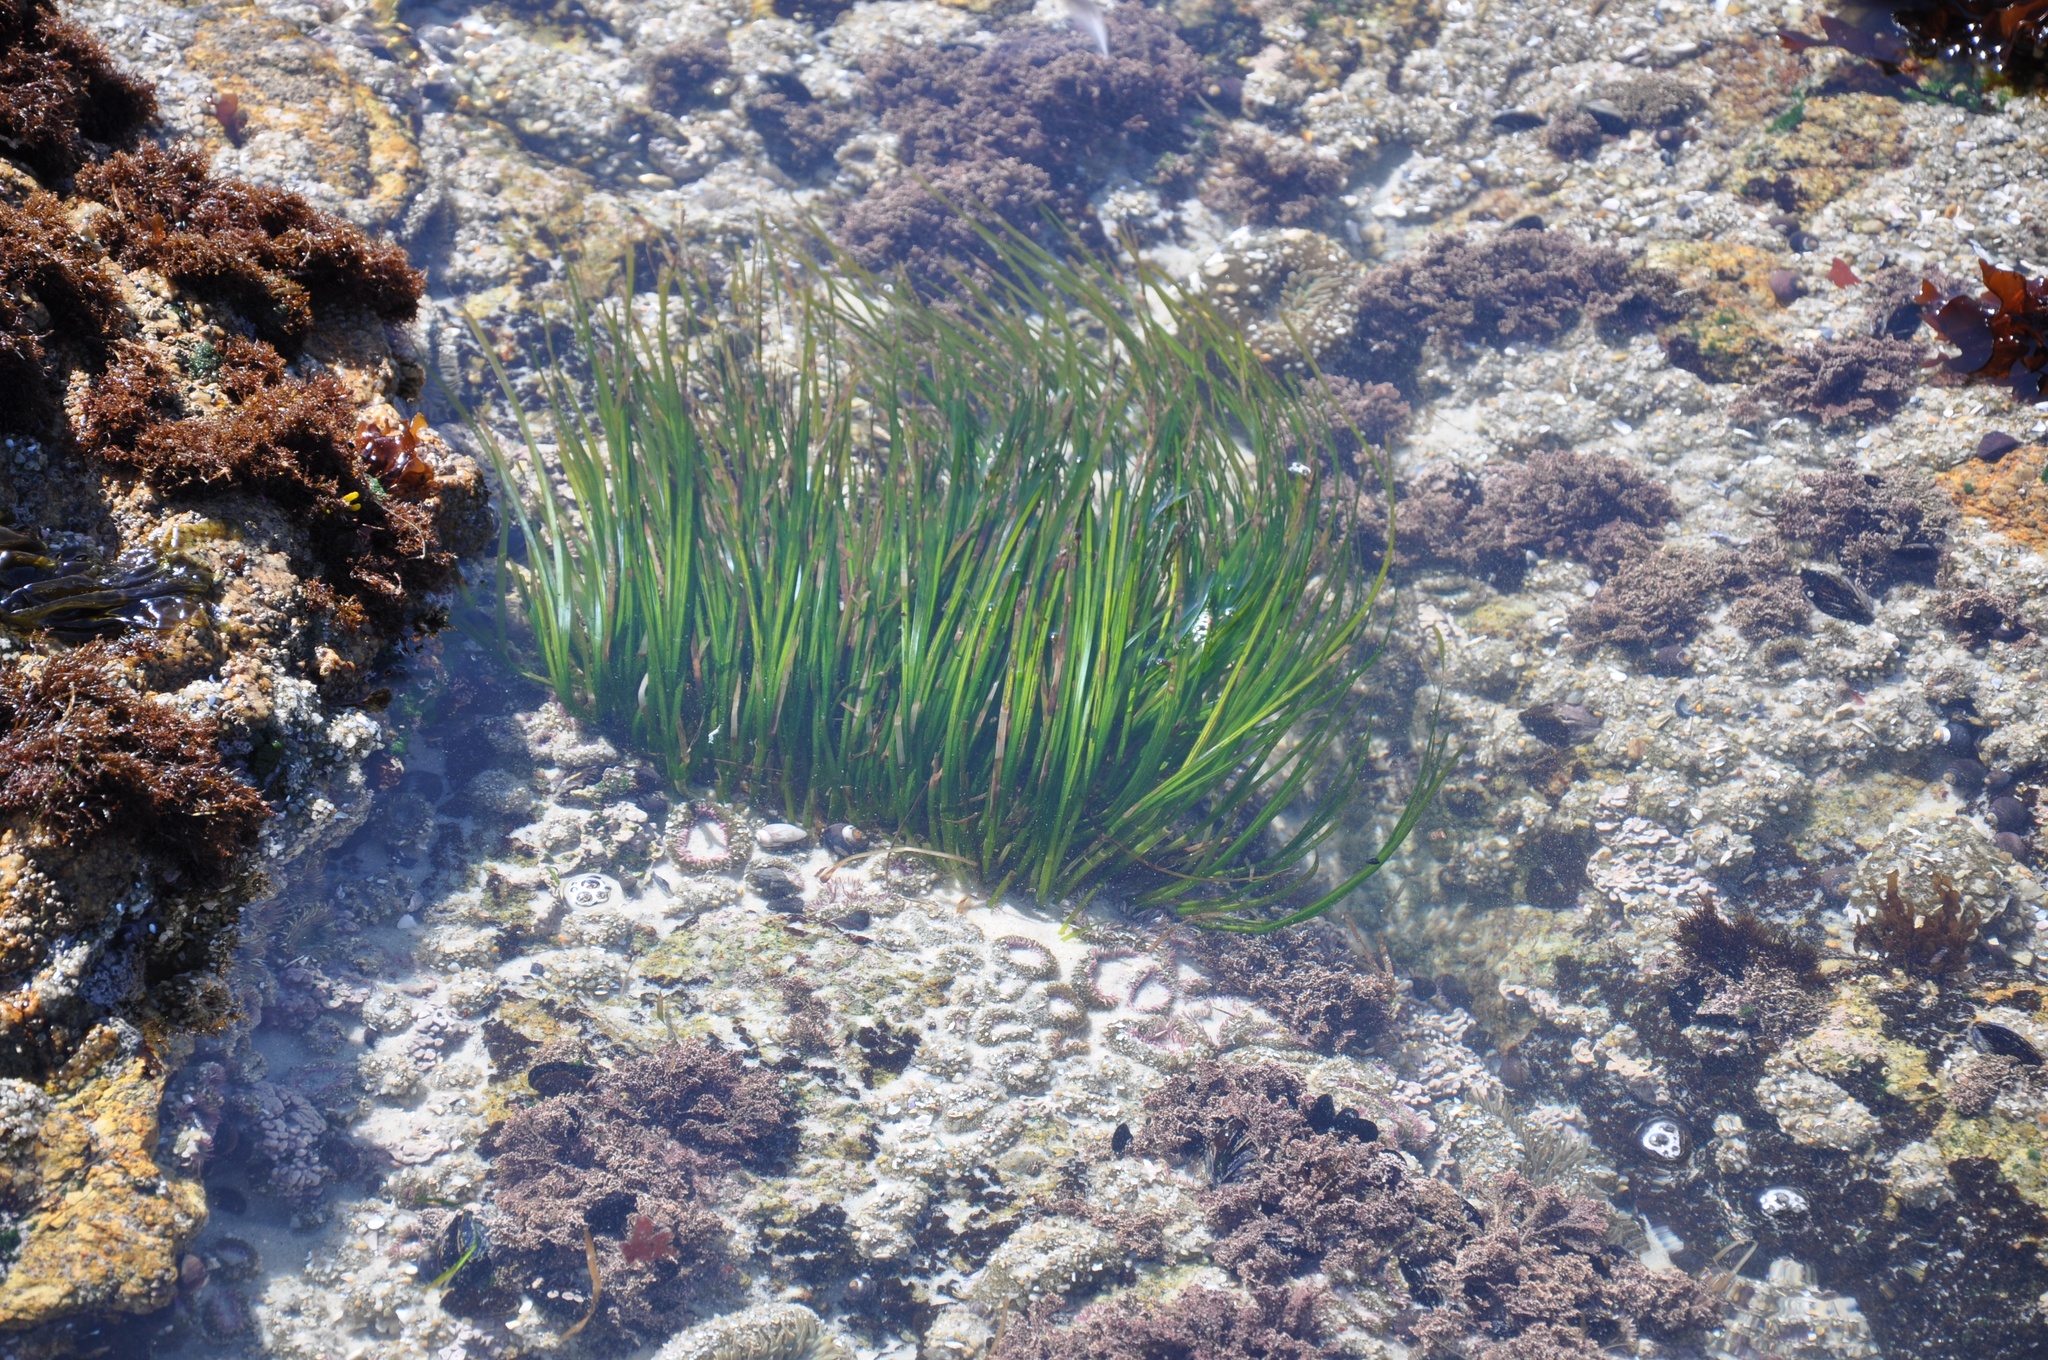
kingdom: Plantae
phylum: Tracheophyta
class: Liliopsida
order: Alismatales
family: Zosteraceae
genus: Phyllospadix
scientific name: Phyllospadix torreyi
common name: Surfgrass
